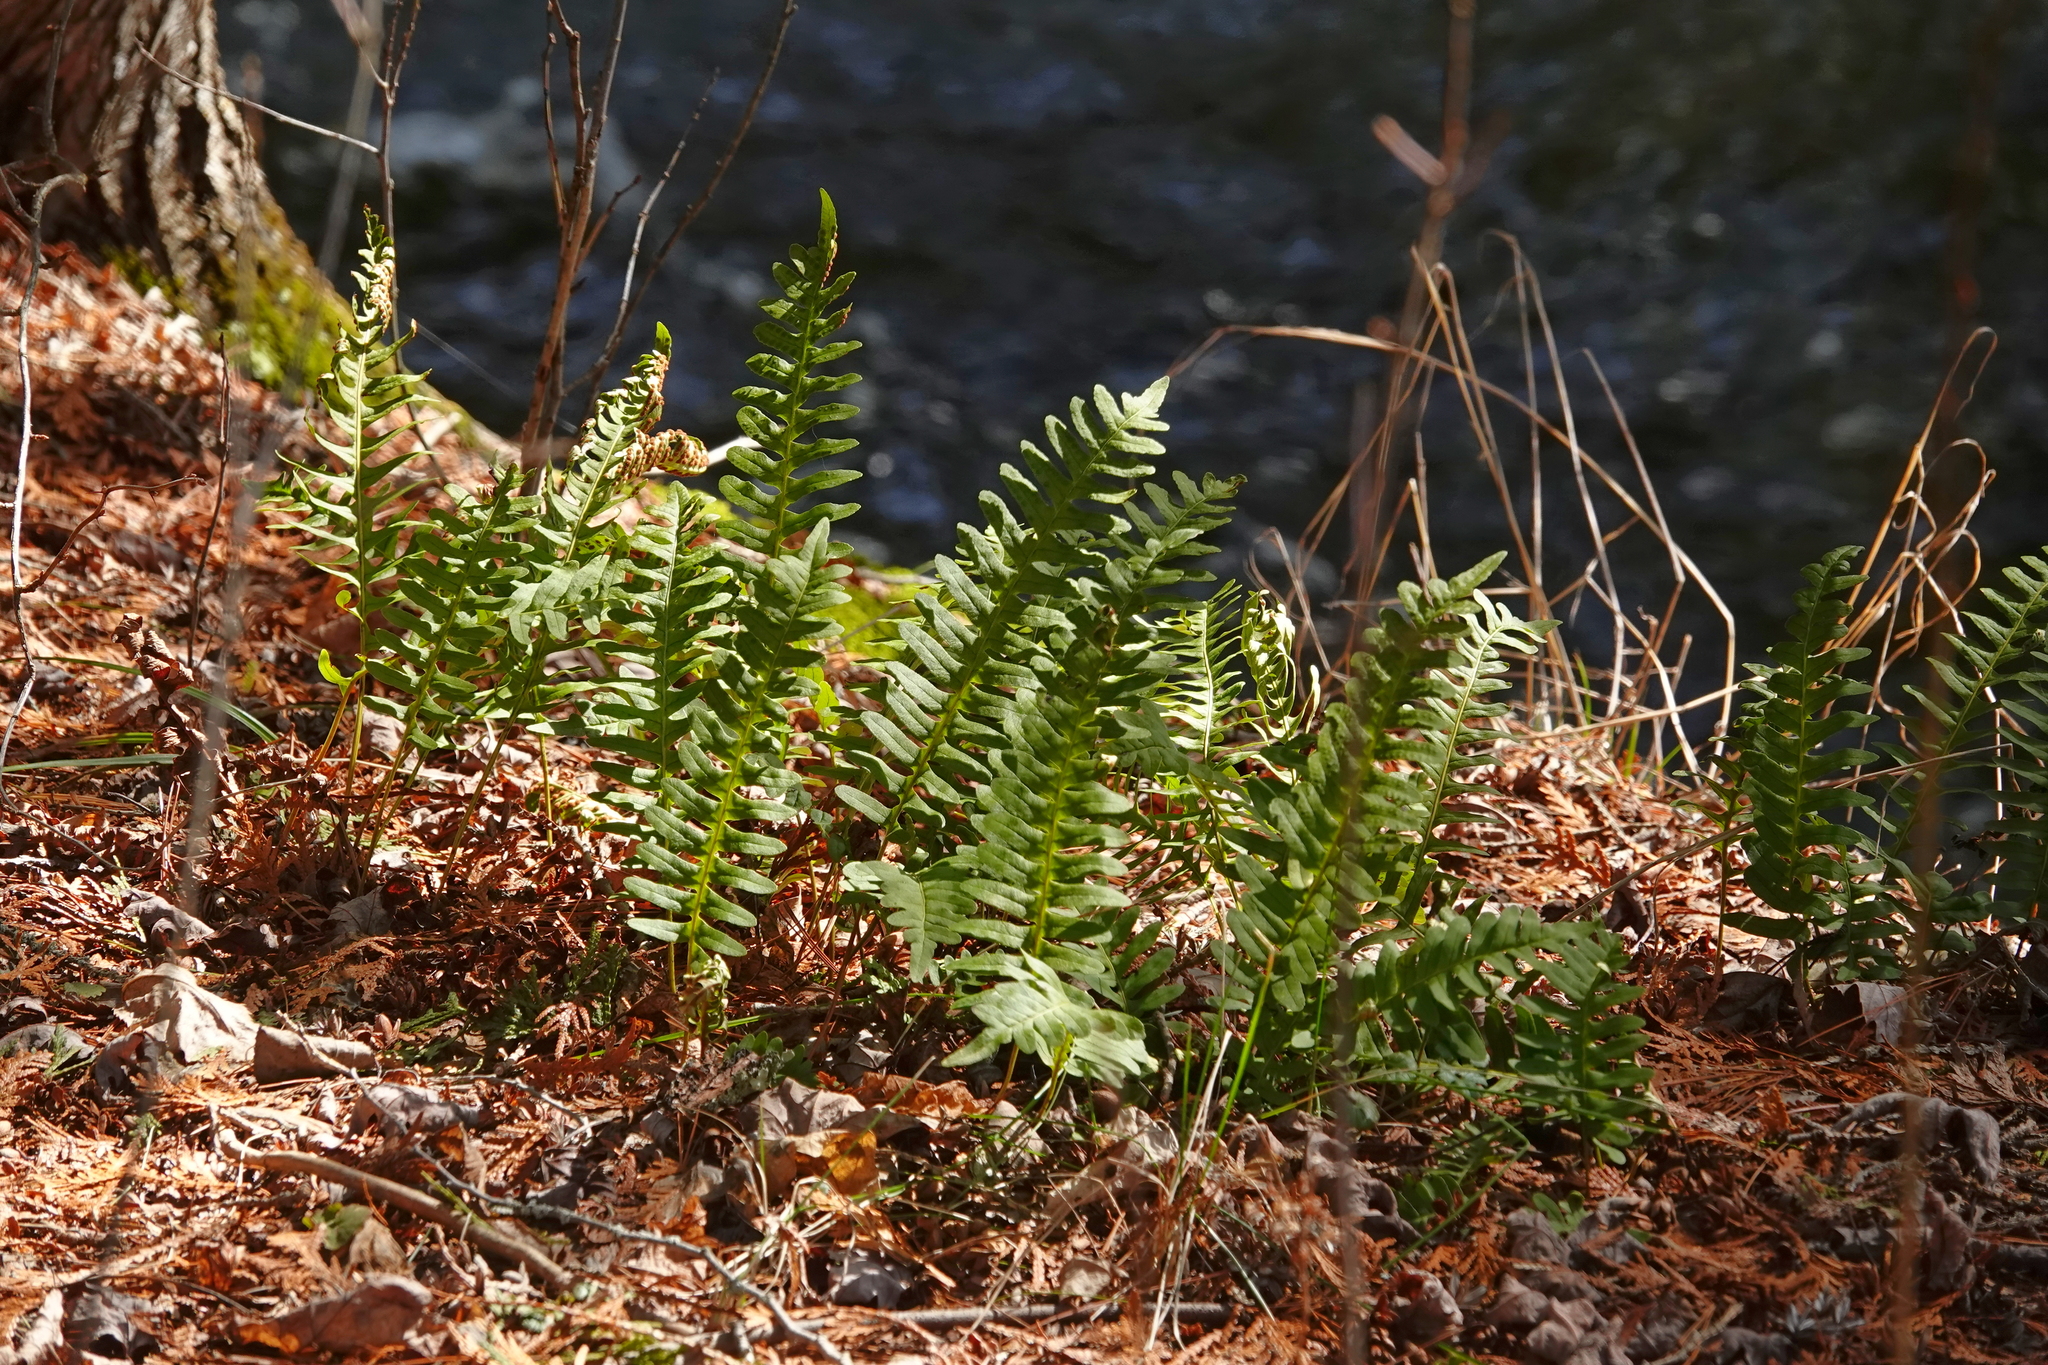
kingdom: Plantae
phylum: Tracheophyta
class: Polypodiopsida
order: Polypodiales
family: Polypodiaceae
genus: Polypodium
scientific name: Polypodium virginianum
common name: American wall fern
